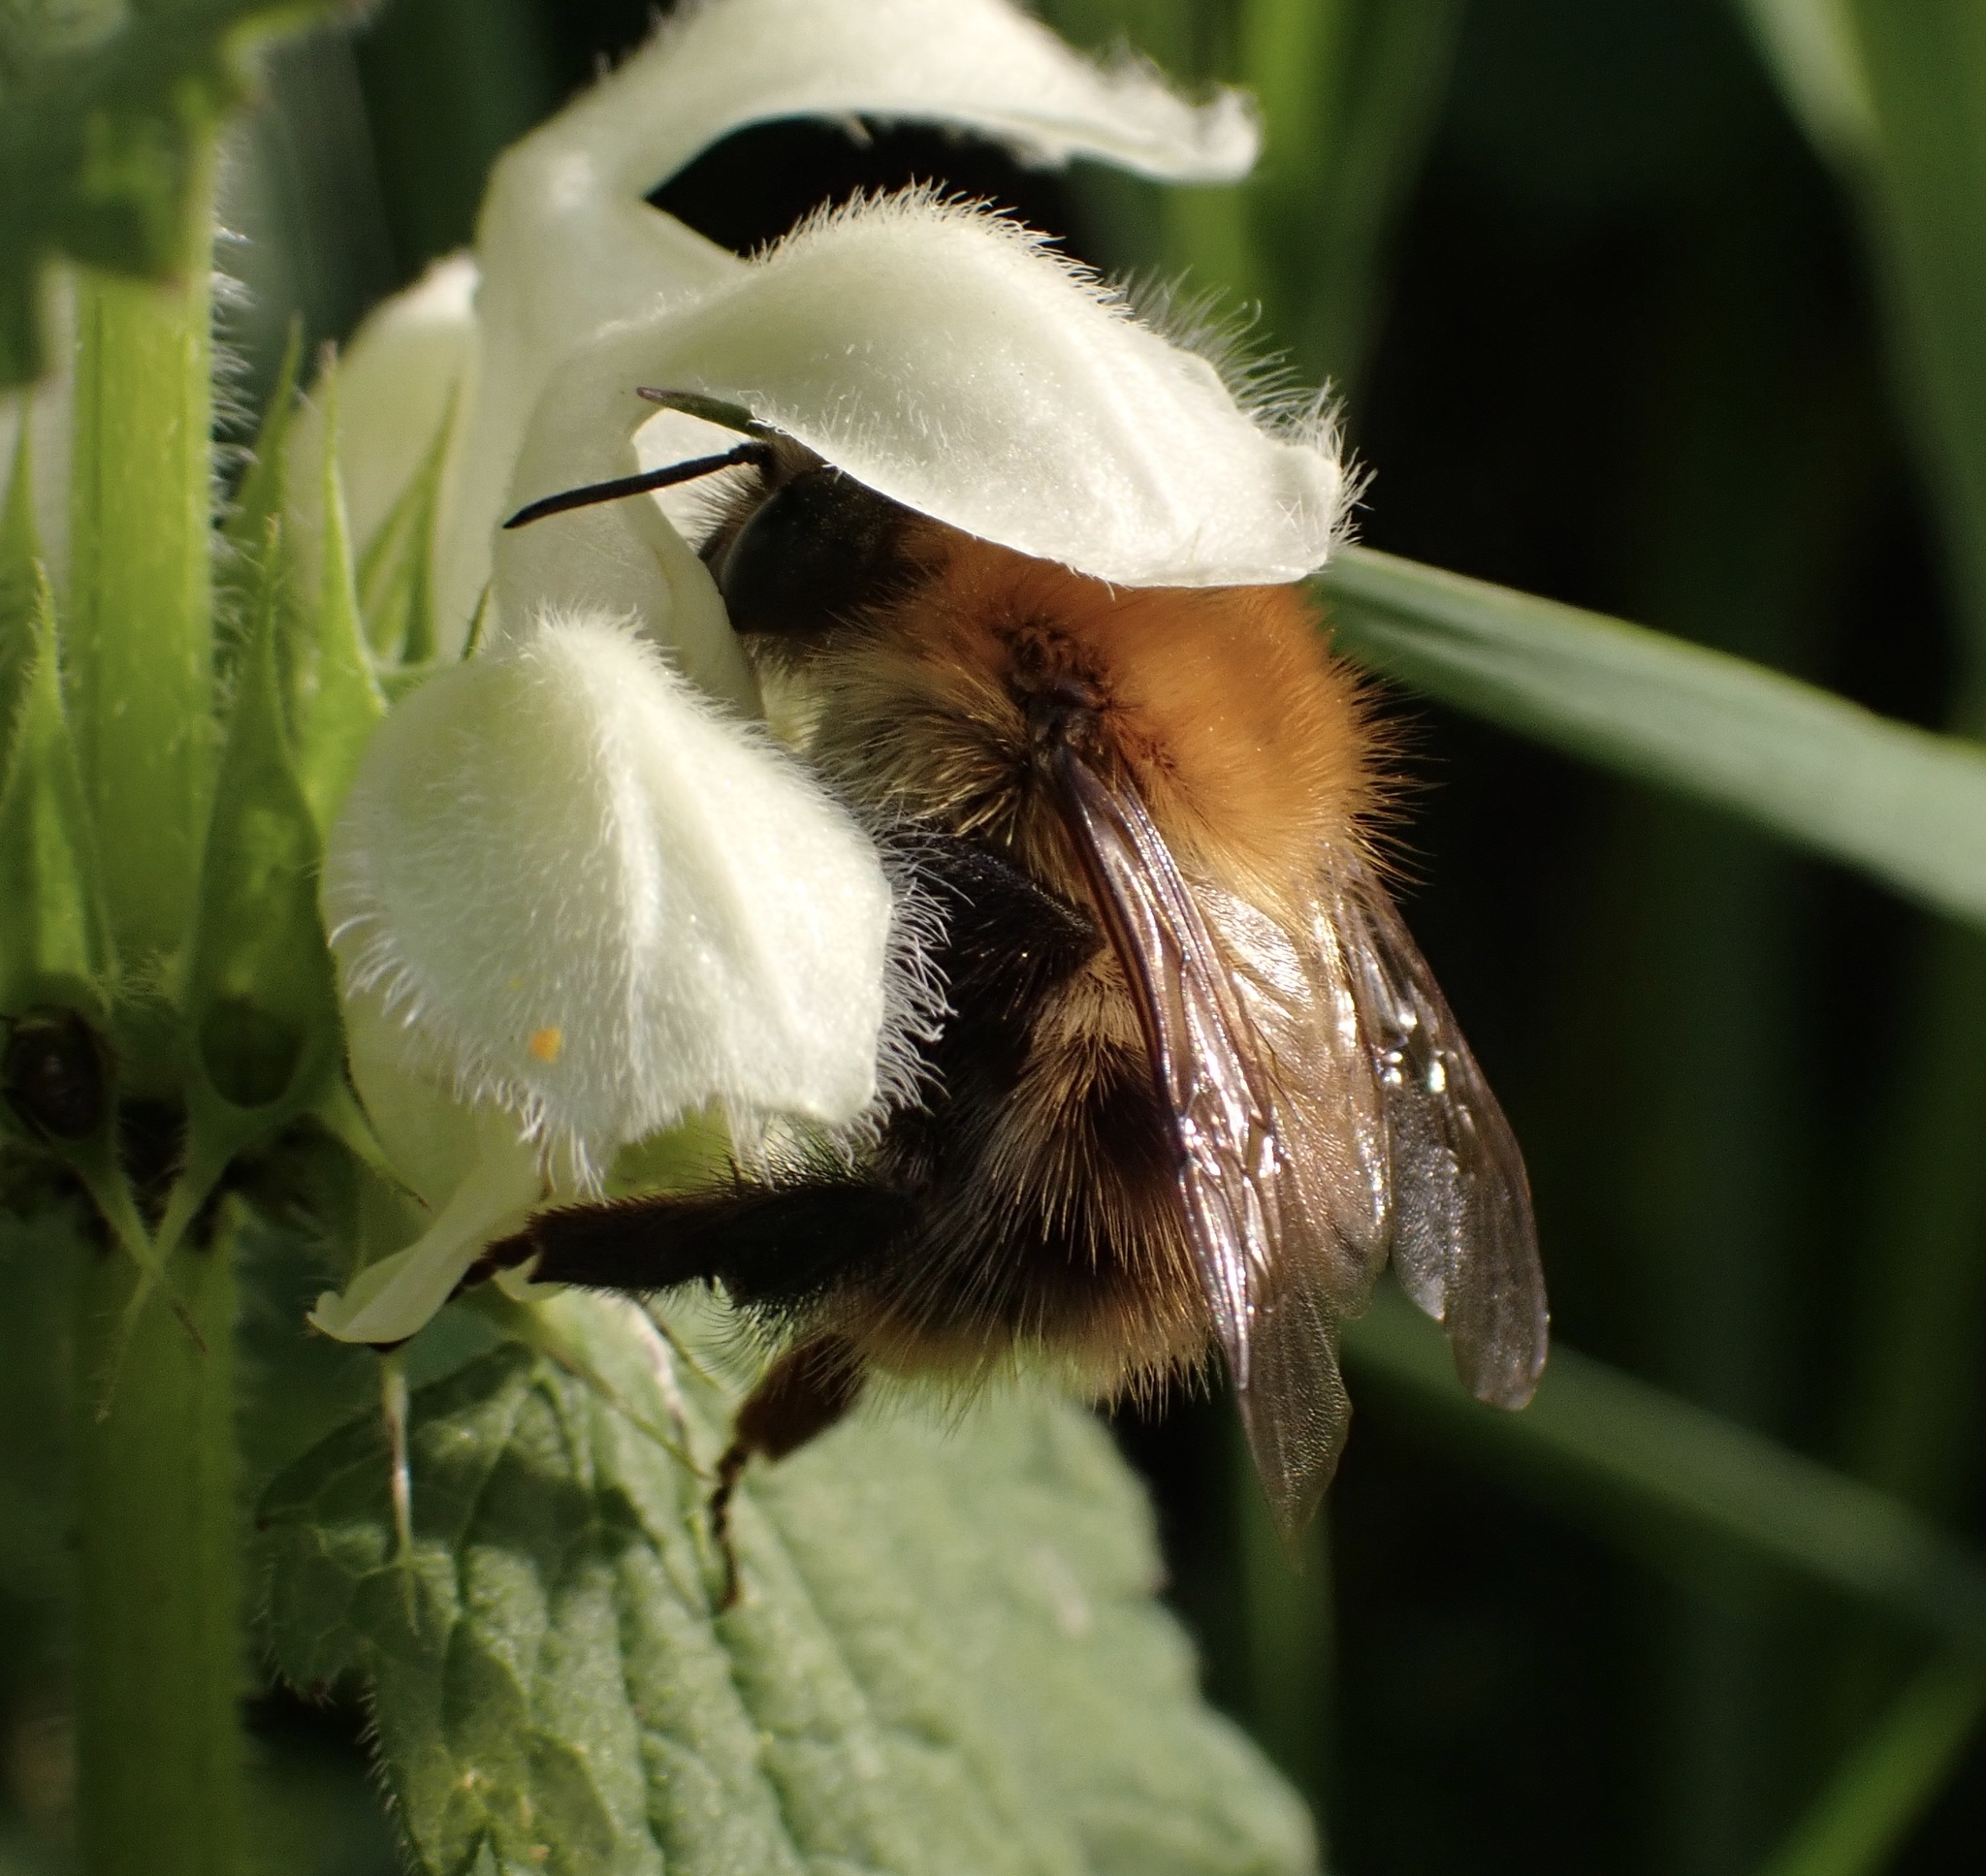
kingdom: Animalia
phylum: Arthropoda
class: Insecta
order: Hymenoptera
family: Apidae
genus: Bombus
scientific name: Bombus pascuorum
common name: Common carder bee
